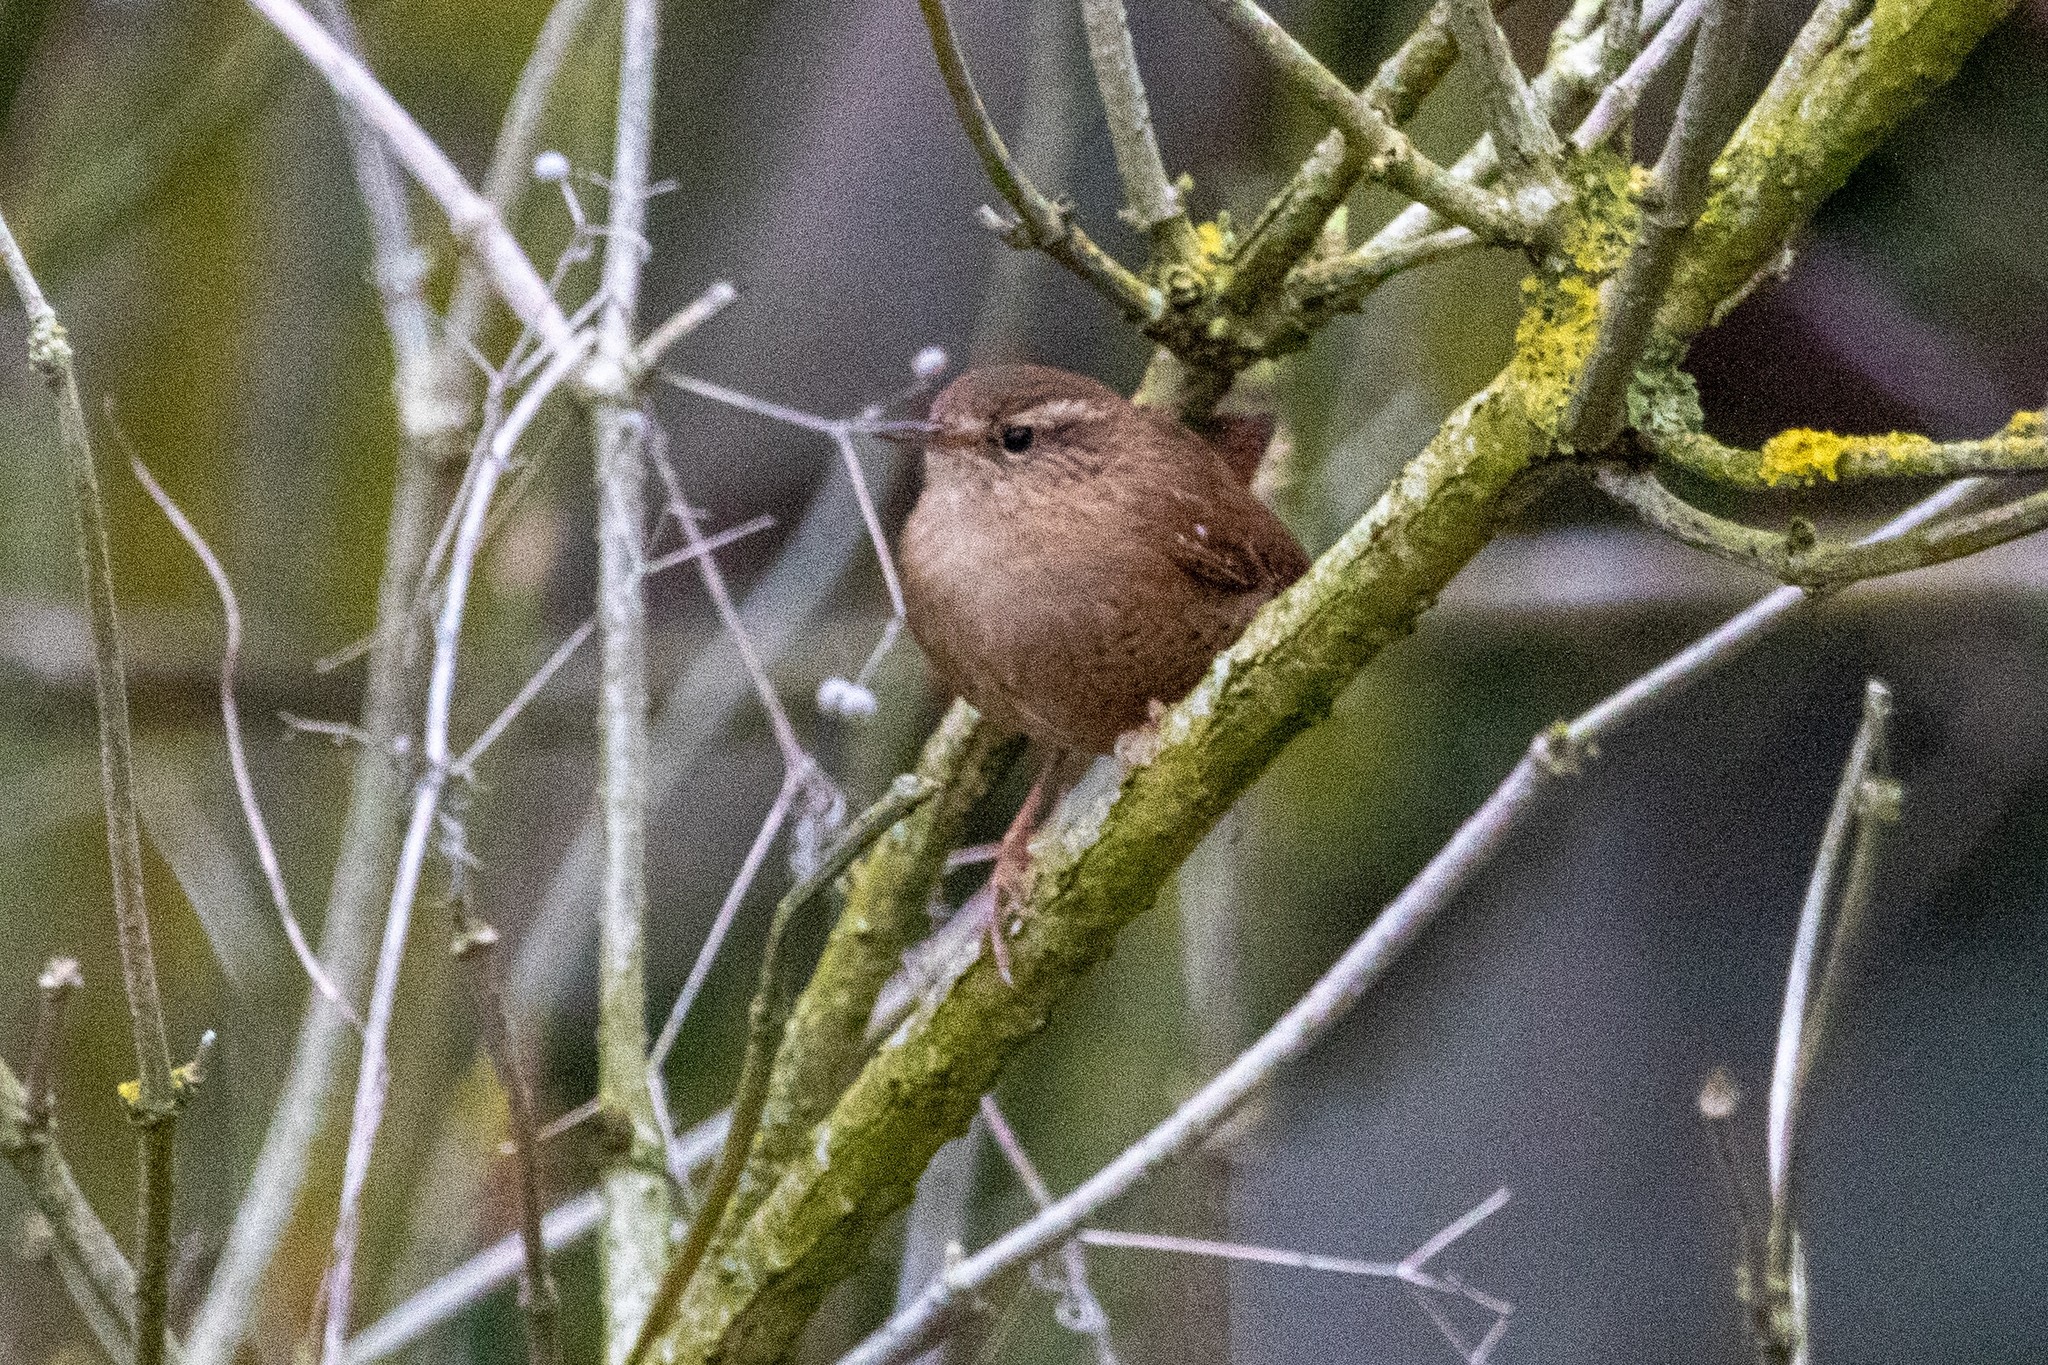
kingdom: Animalia
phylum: Chordata
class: Aves
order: Passeriformes
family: Troglodytidae
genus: Troglodytes
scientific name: Troglodytes troglodytes
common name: Eurasian wren
